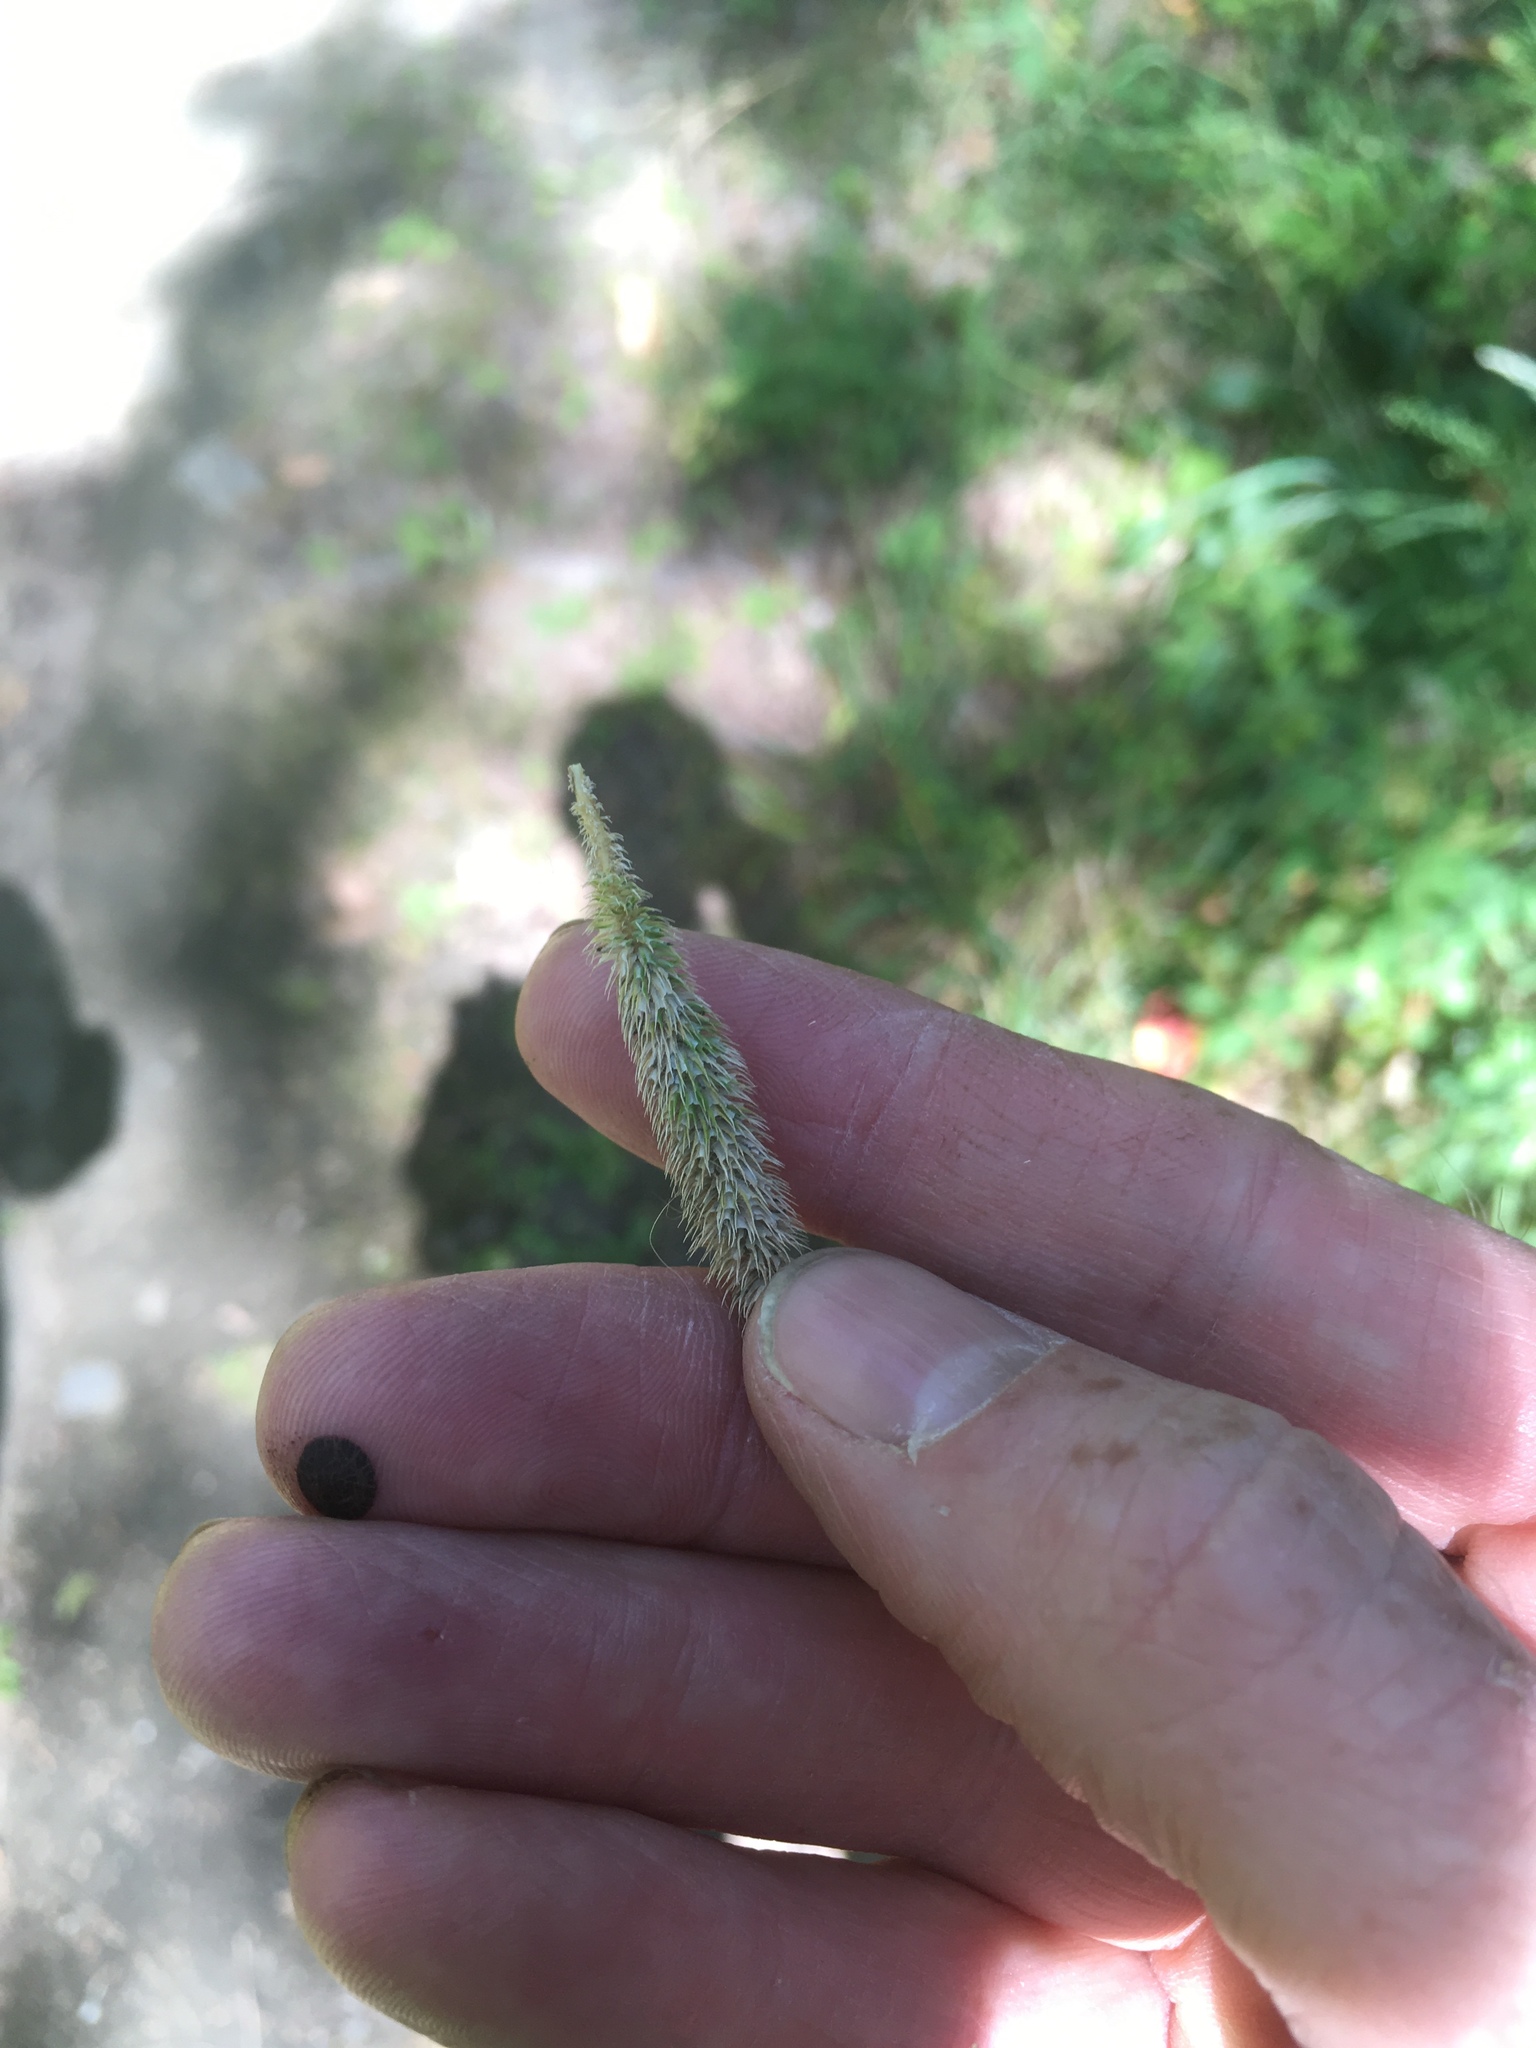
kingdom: Plantae
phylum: Tracheophyta
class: Liliopsida
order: Poales
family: Poaceae
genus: Phleum
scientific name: Phleum pratense
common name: Timothy grass
